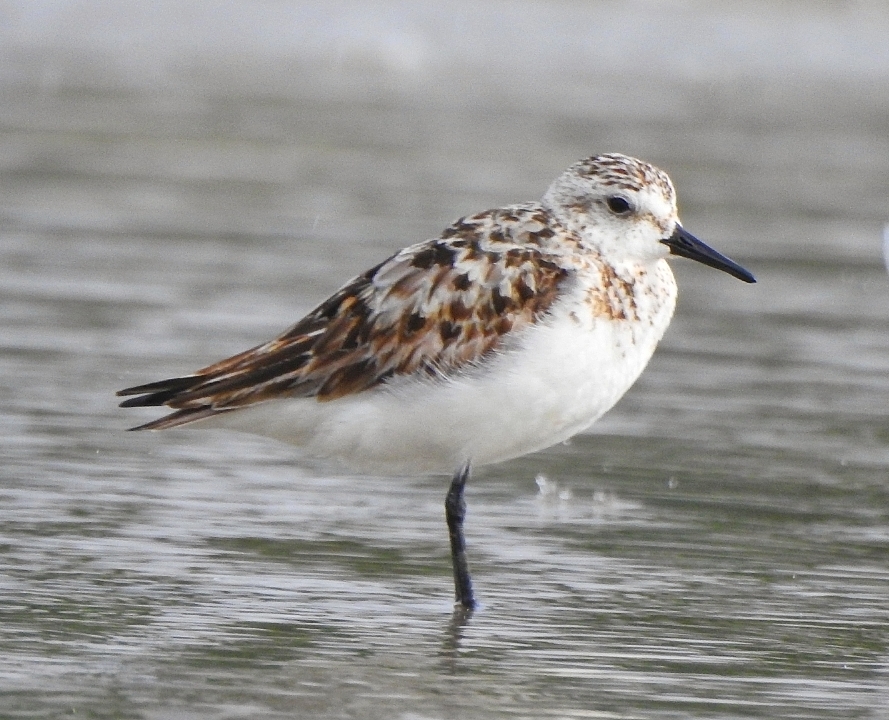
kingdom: Animalia
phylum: Chordata
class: Aves
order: Charadriiformes
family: Scolopacidae
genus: Calidris
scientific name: Calidris alba
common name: Sanderling
